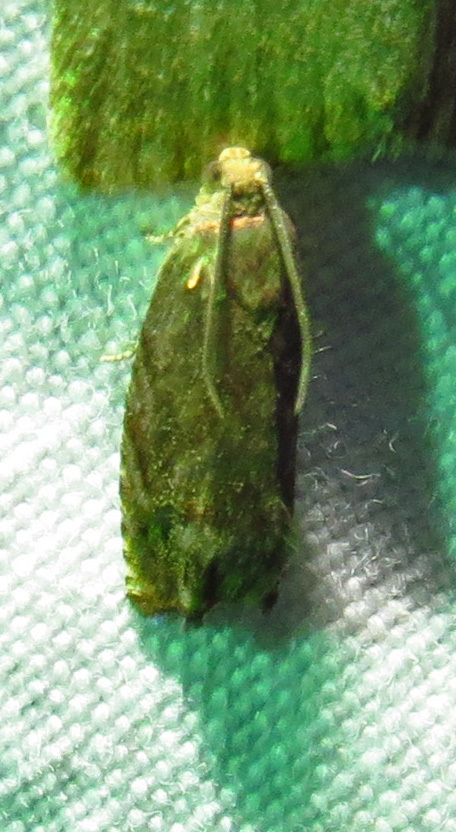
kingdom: Animalia
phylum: Arthropoda
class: Insecta
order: Lepidoptera
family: Tortricidae
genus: Cydia
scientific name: Cydia caryana
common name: Hickory shuckworm moth
